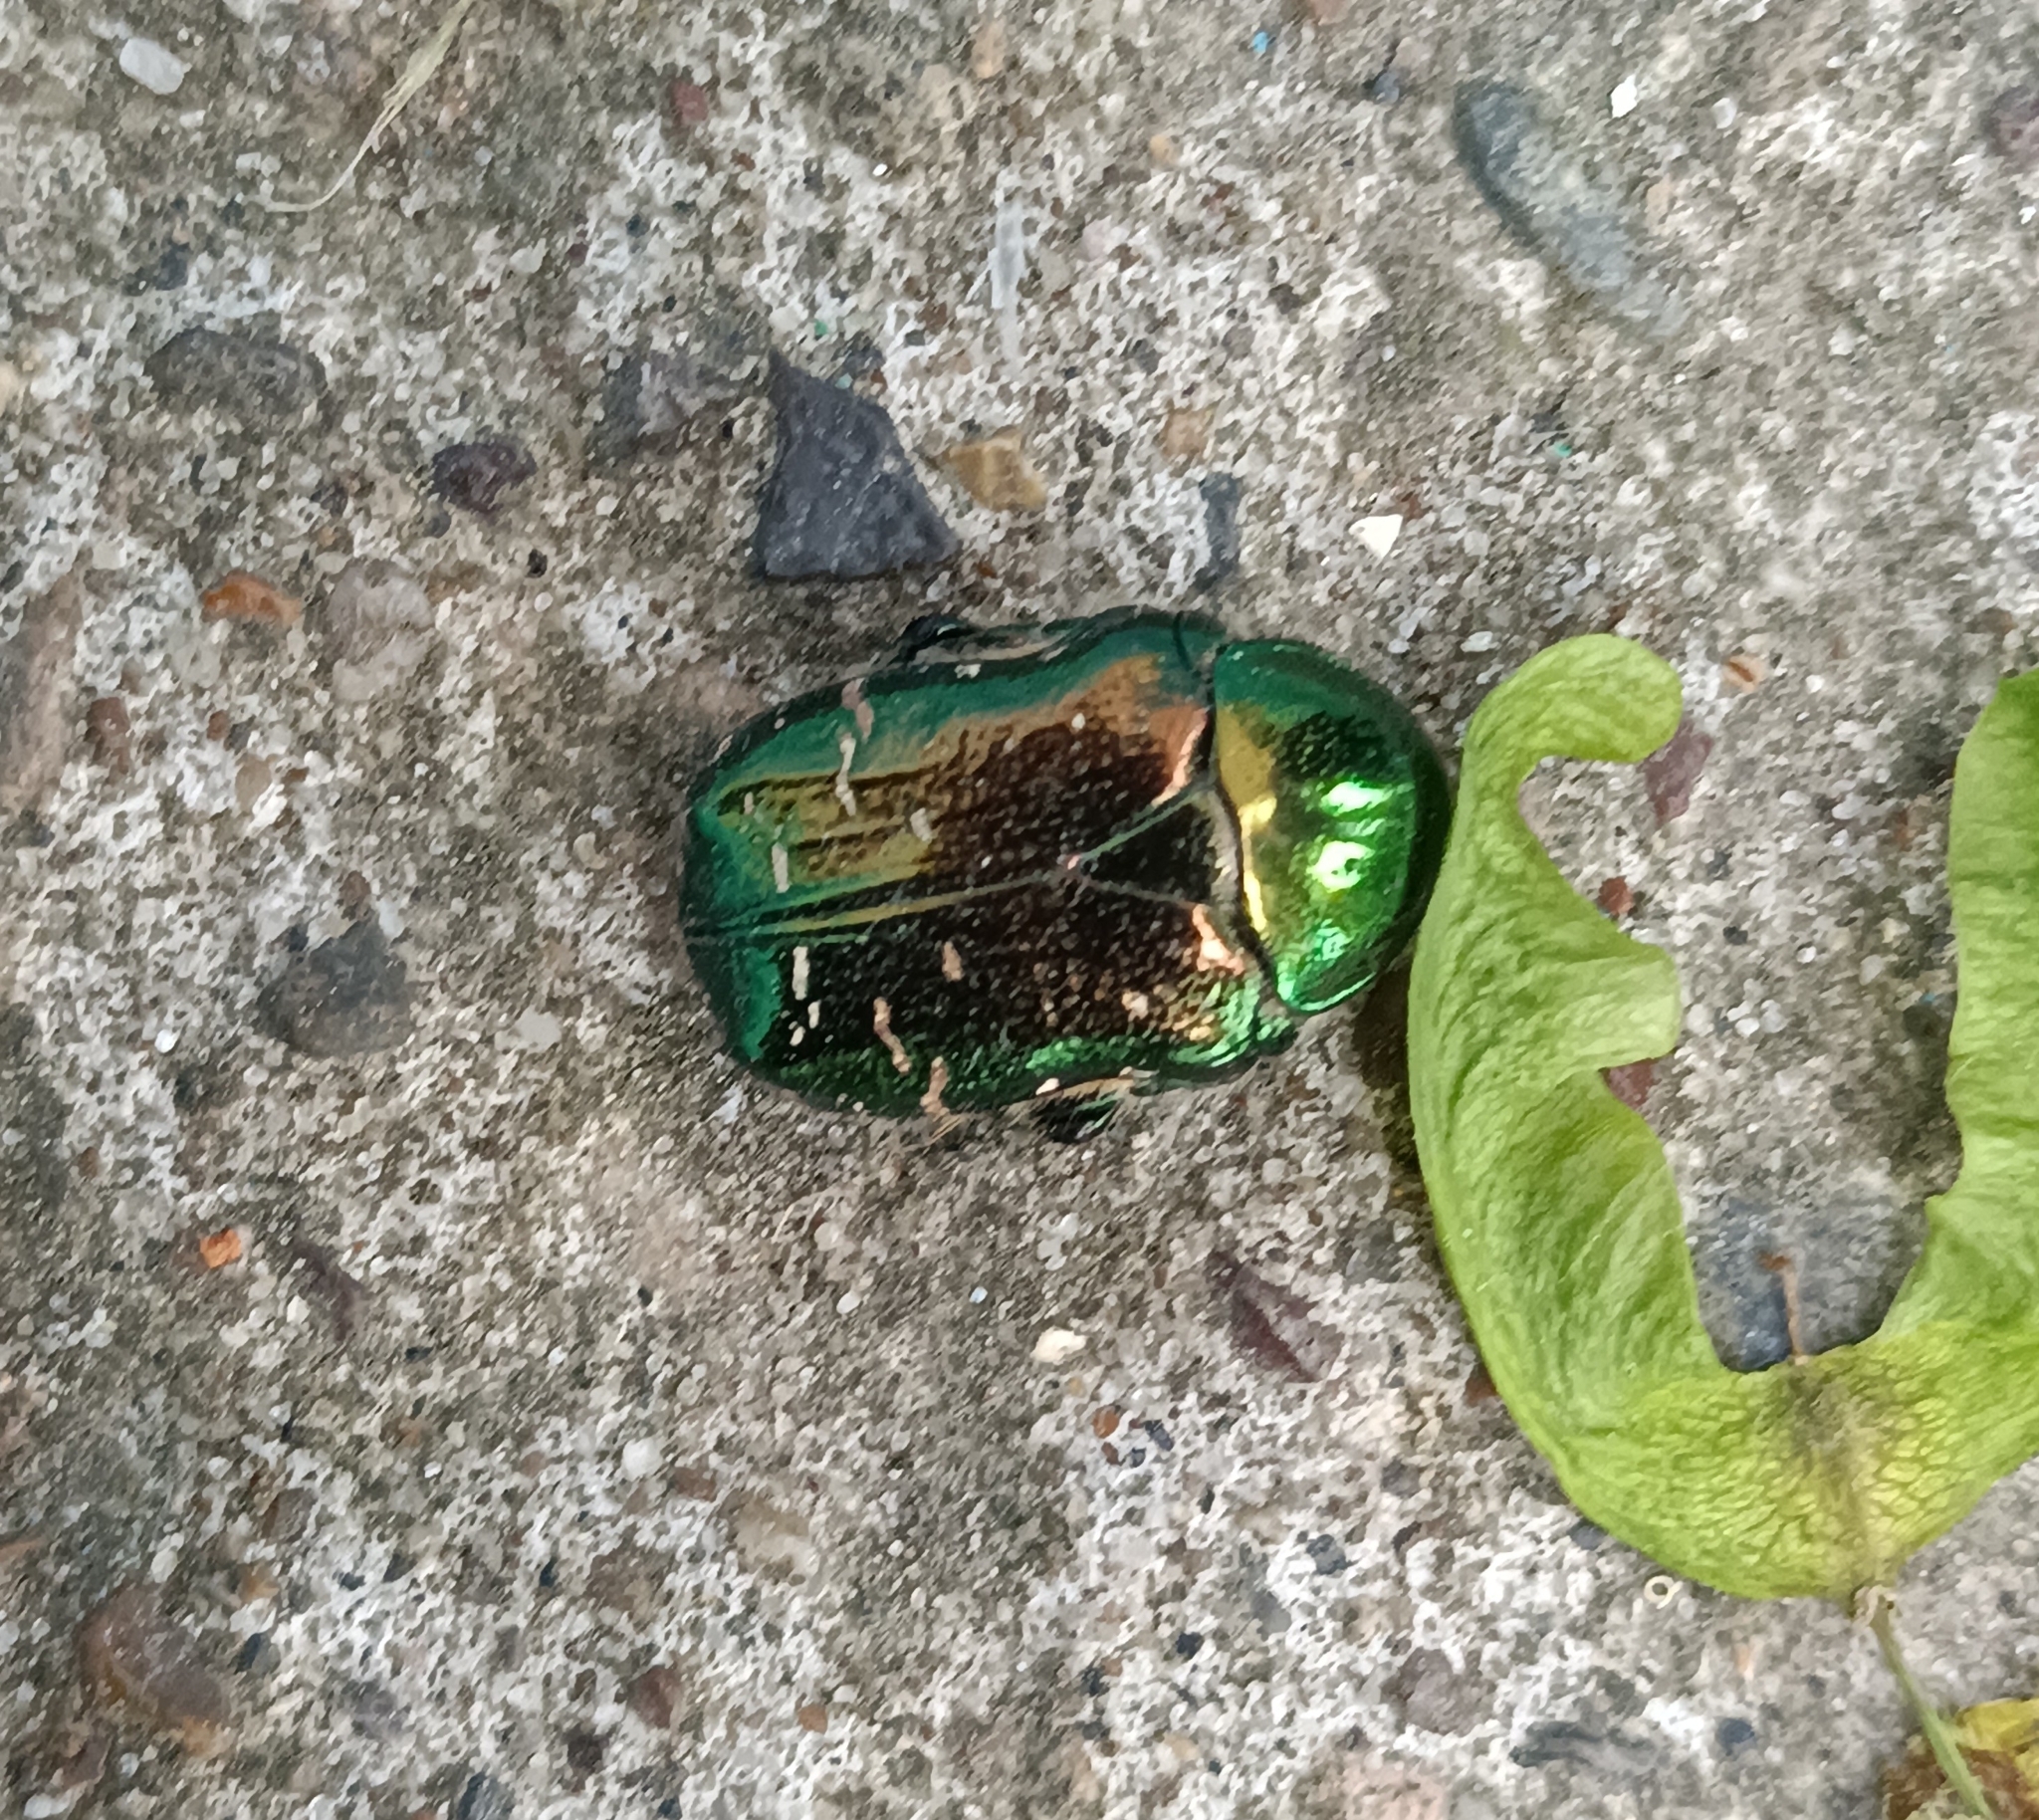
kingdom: Animalia
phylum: Arthropoda
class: Insecta
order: Coleoptera
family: Scarabaeidae
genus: Cetonia
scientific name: Cetonia aurata
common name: Rose chafer
